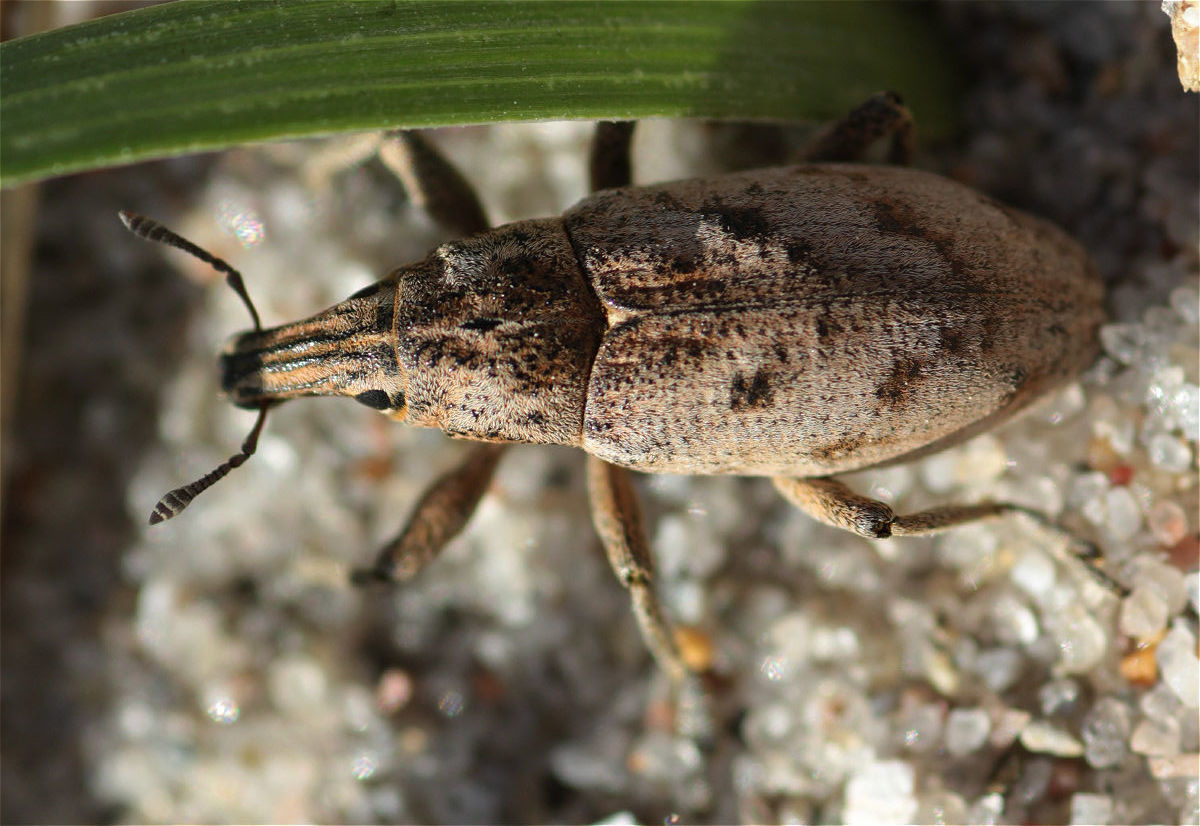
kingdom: Animalia
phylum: Arthropoda
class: Insecta
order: Coleoptera
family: Curculionidae
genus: Cleonis
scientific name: Cleonis pigra
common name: Large thistle weevil
